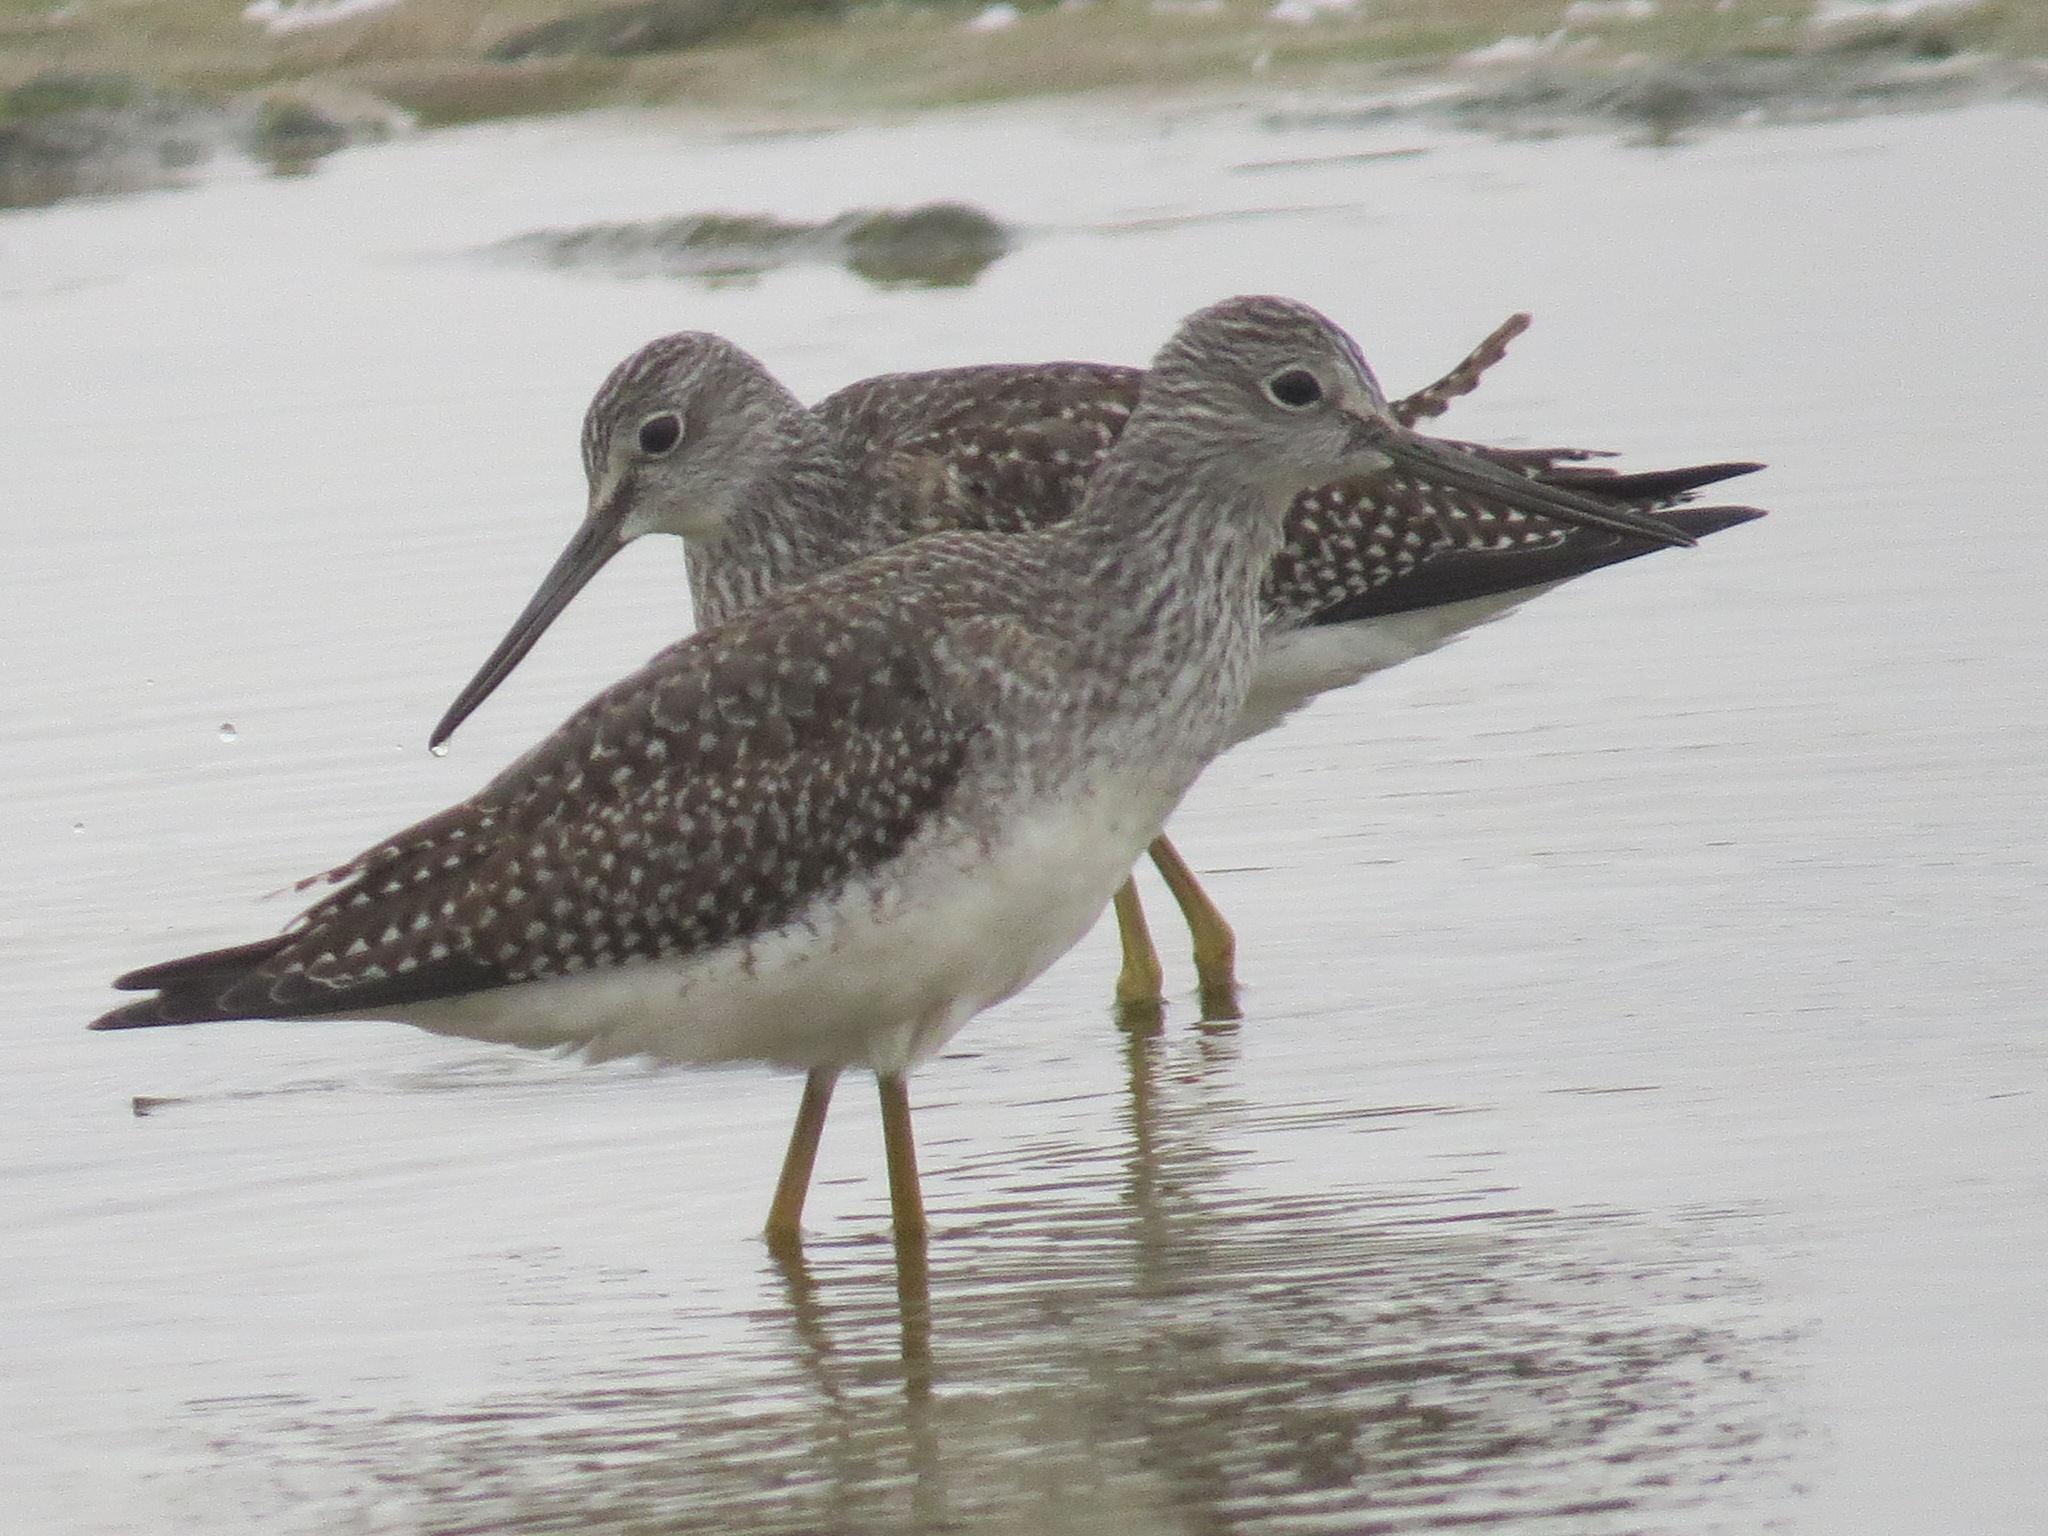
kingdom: Animalia
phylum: Chordata
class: Aves
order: Charadriiformes
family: Scolopacidae
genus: Tringa
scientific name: Tringa melanoleuca
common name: Greater yellowlegs
